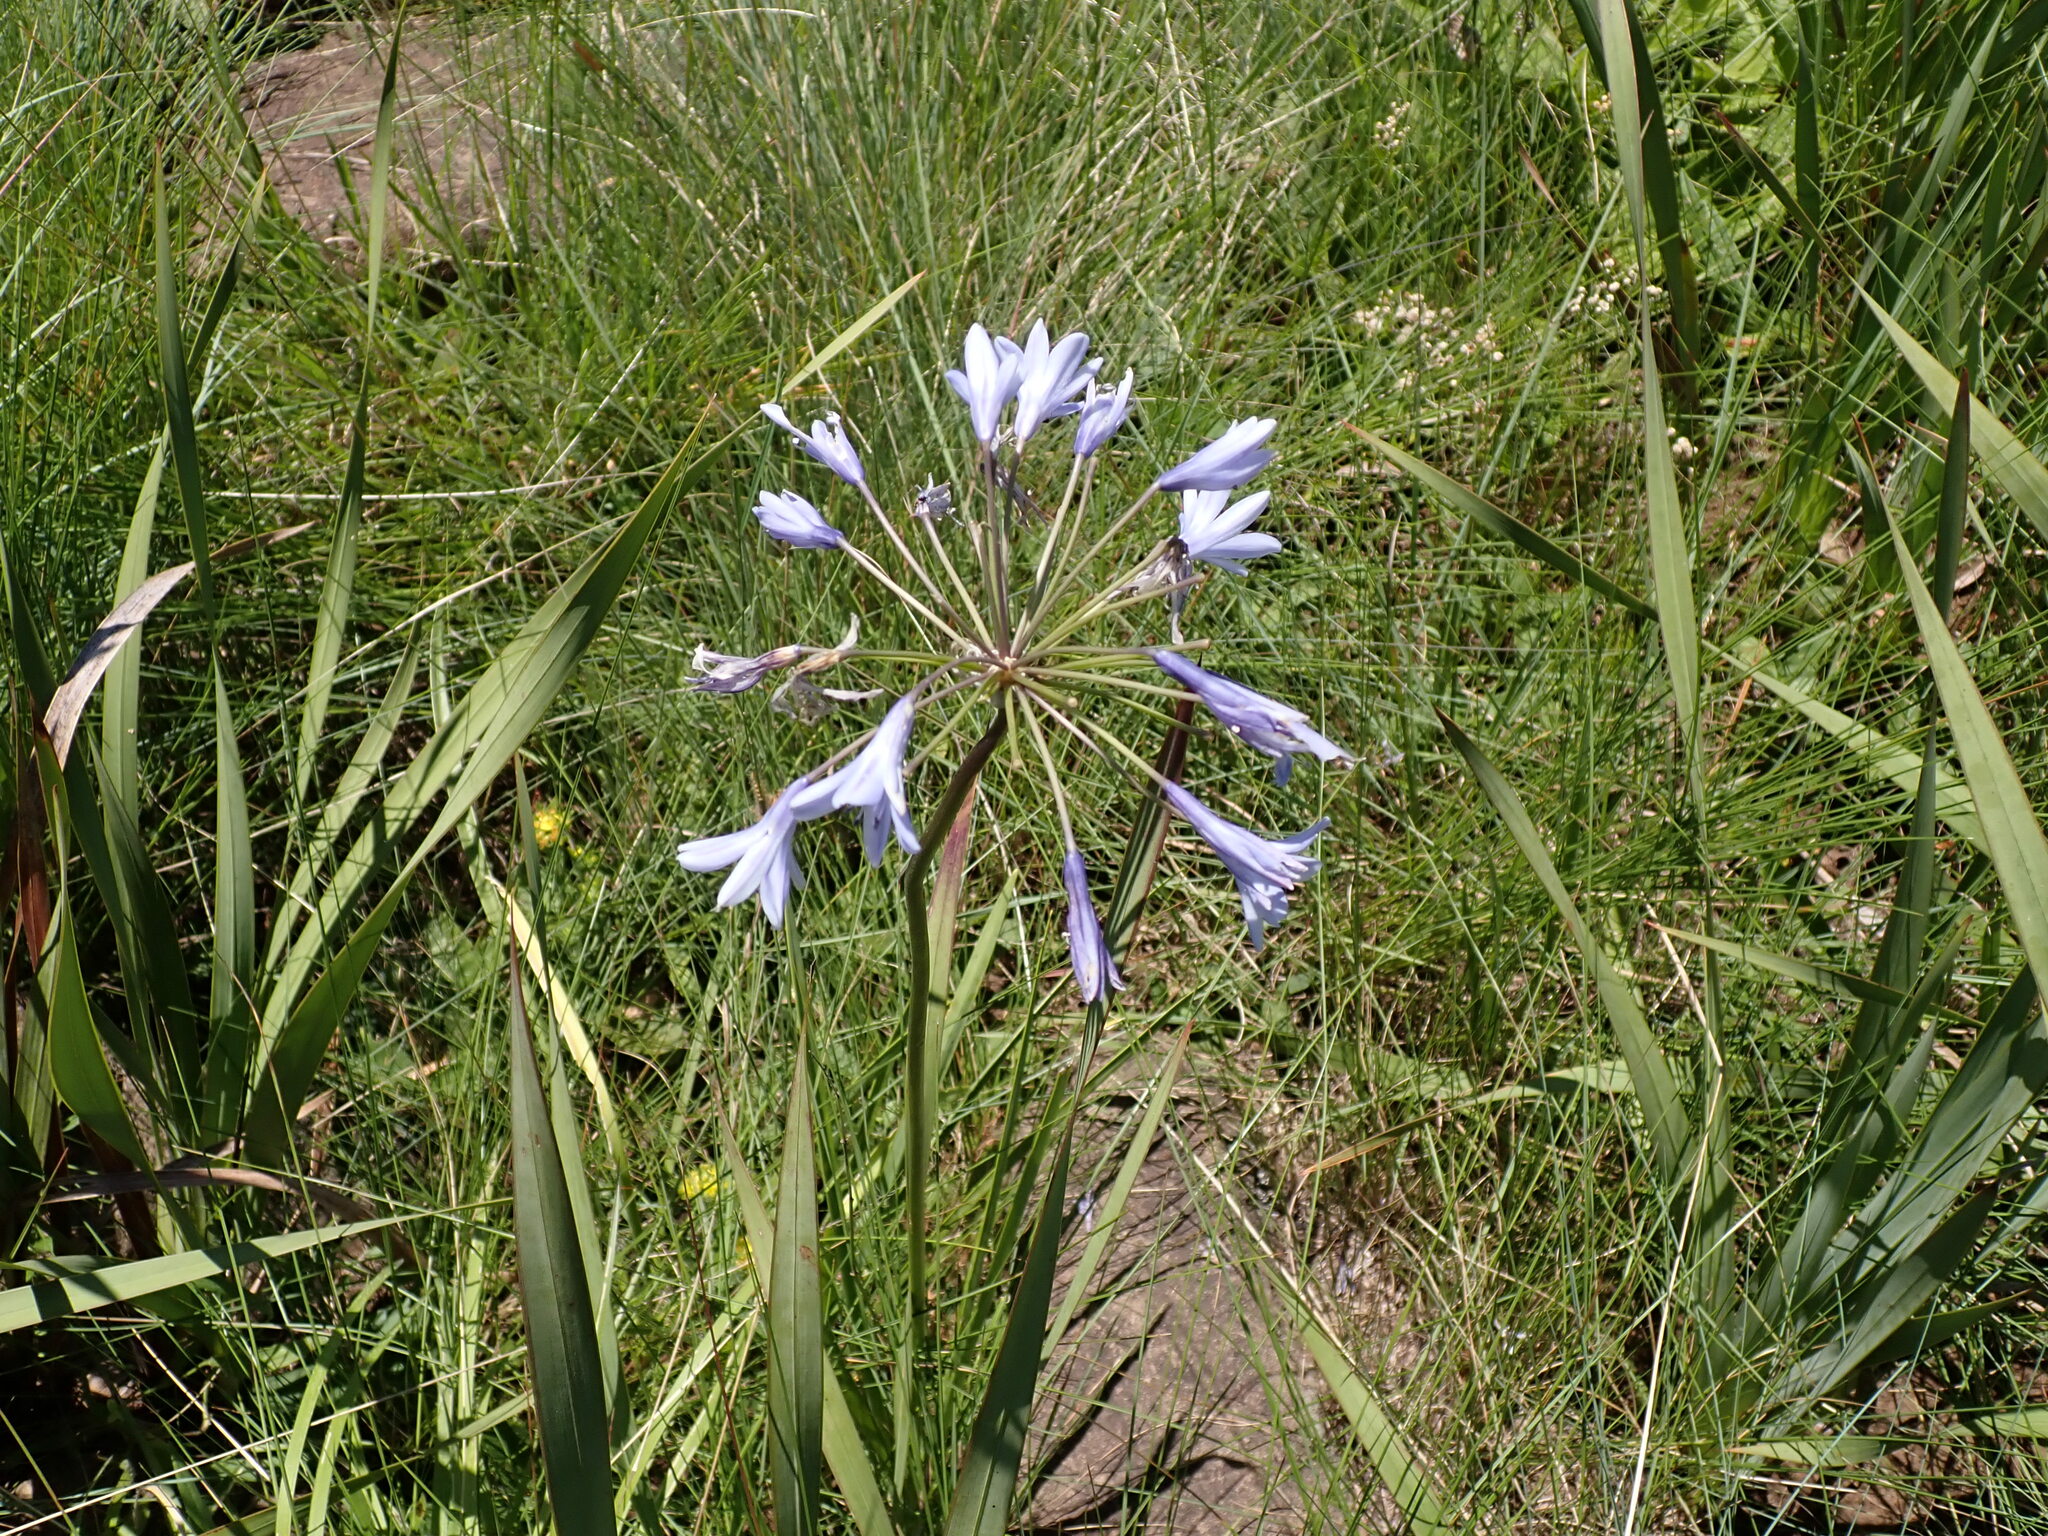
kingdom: Plantae
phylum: Tracheophyta
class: Liliopsida
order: Asparagales
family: Amaryllidaceae
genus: Agapanthus
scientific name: Agapanthus campanulatus
